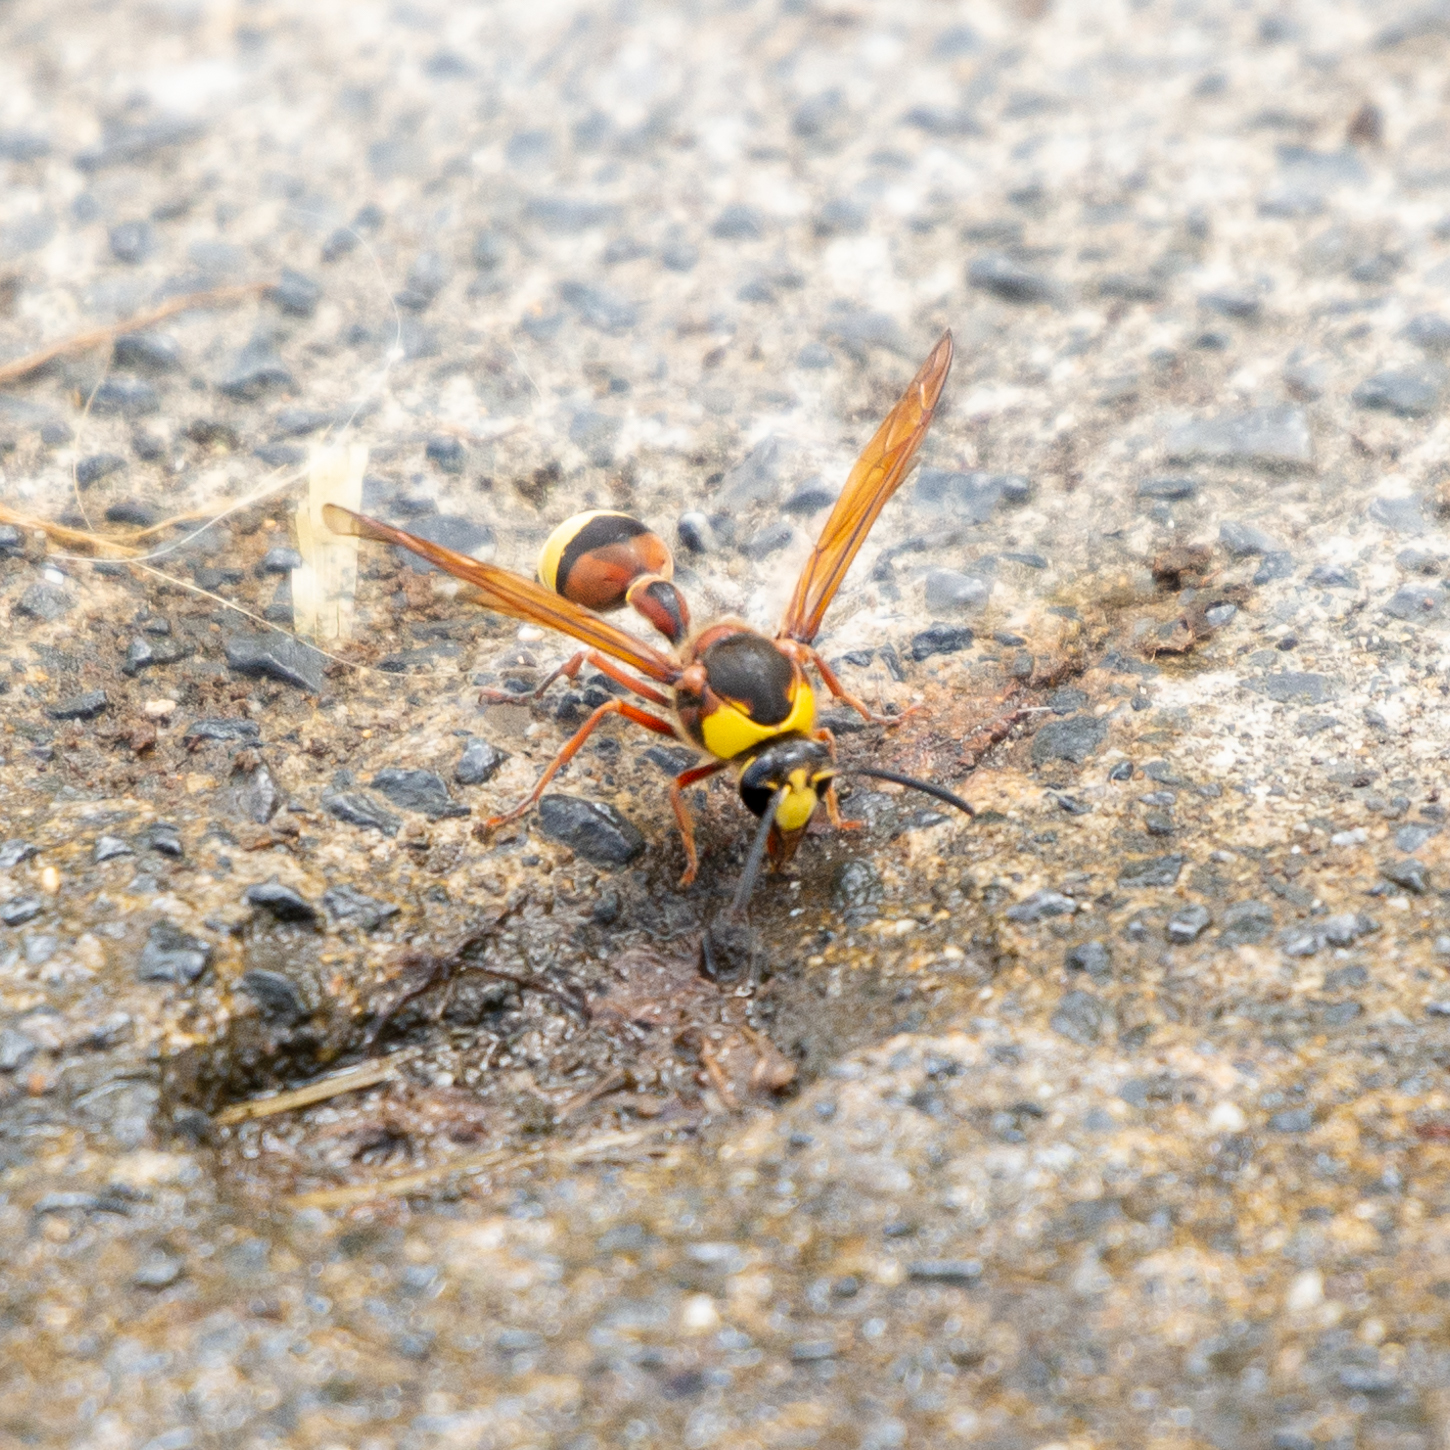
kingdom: Animalia
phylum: Arthropoda
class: Insecta
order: Hymenoptera
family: Eumenidae
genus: Delta
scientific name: Delta unguiculatum
